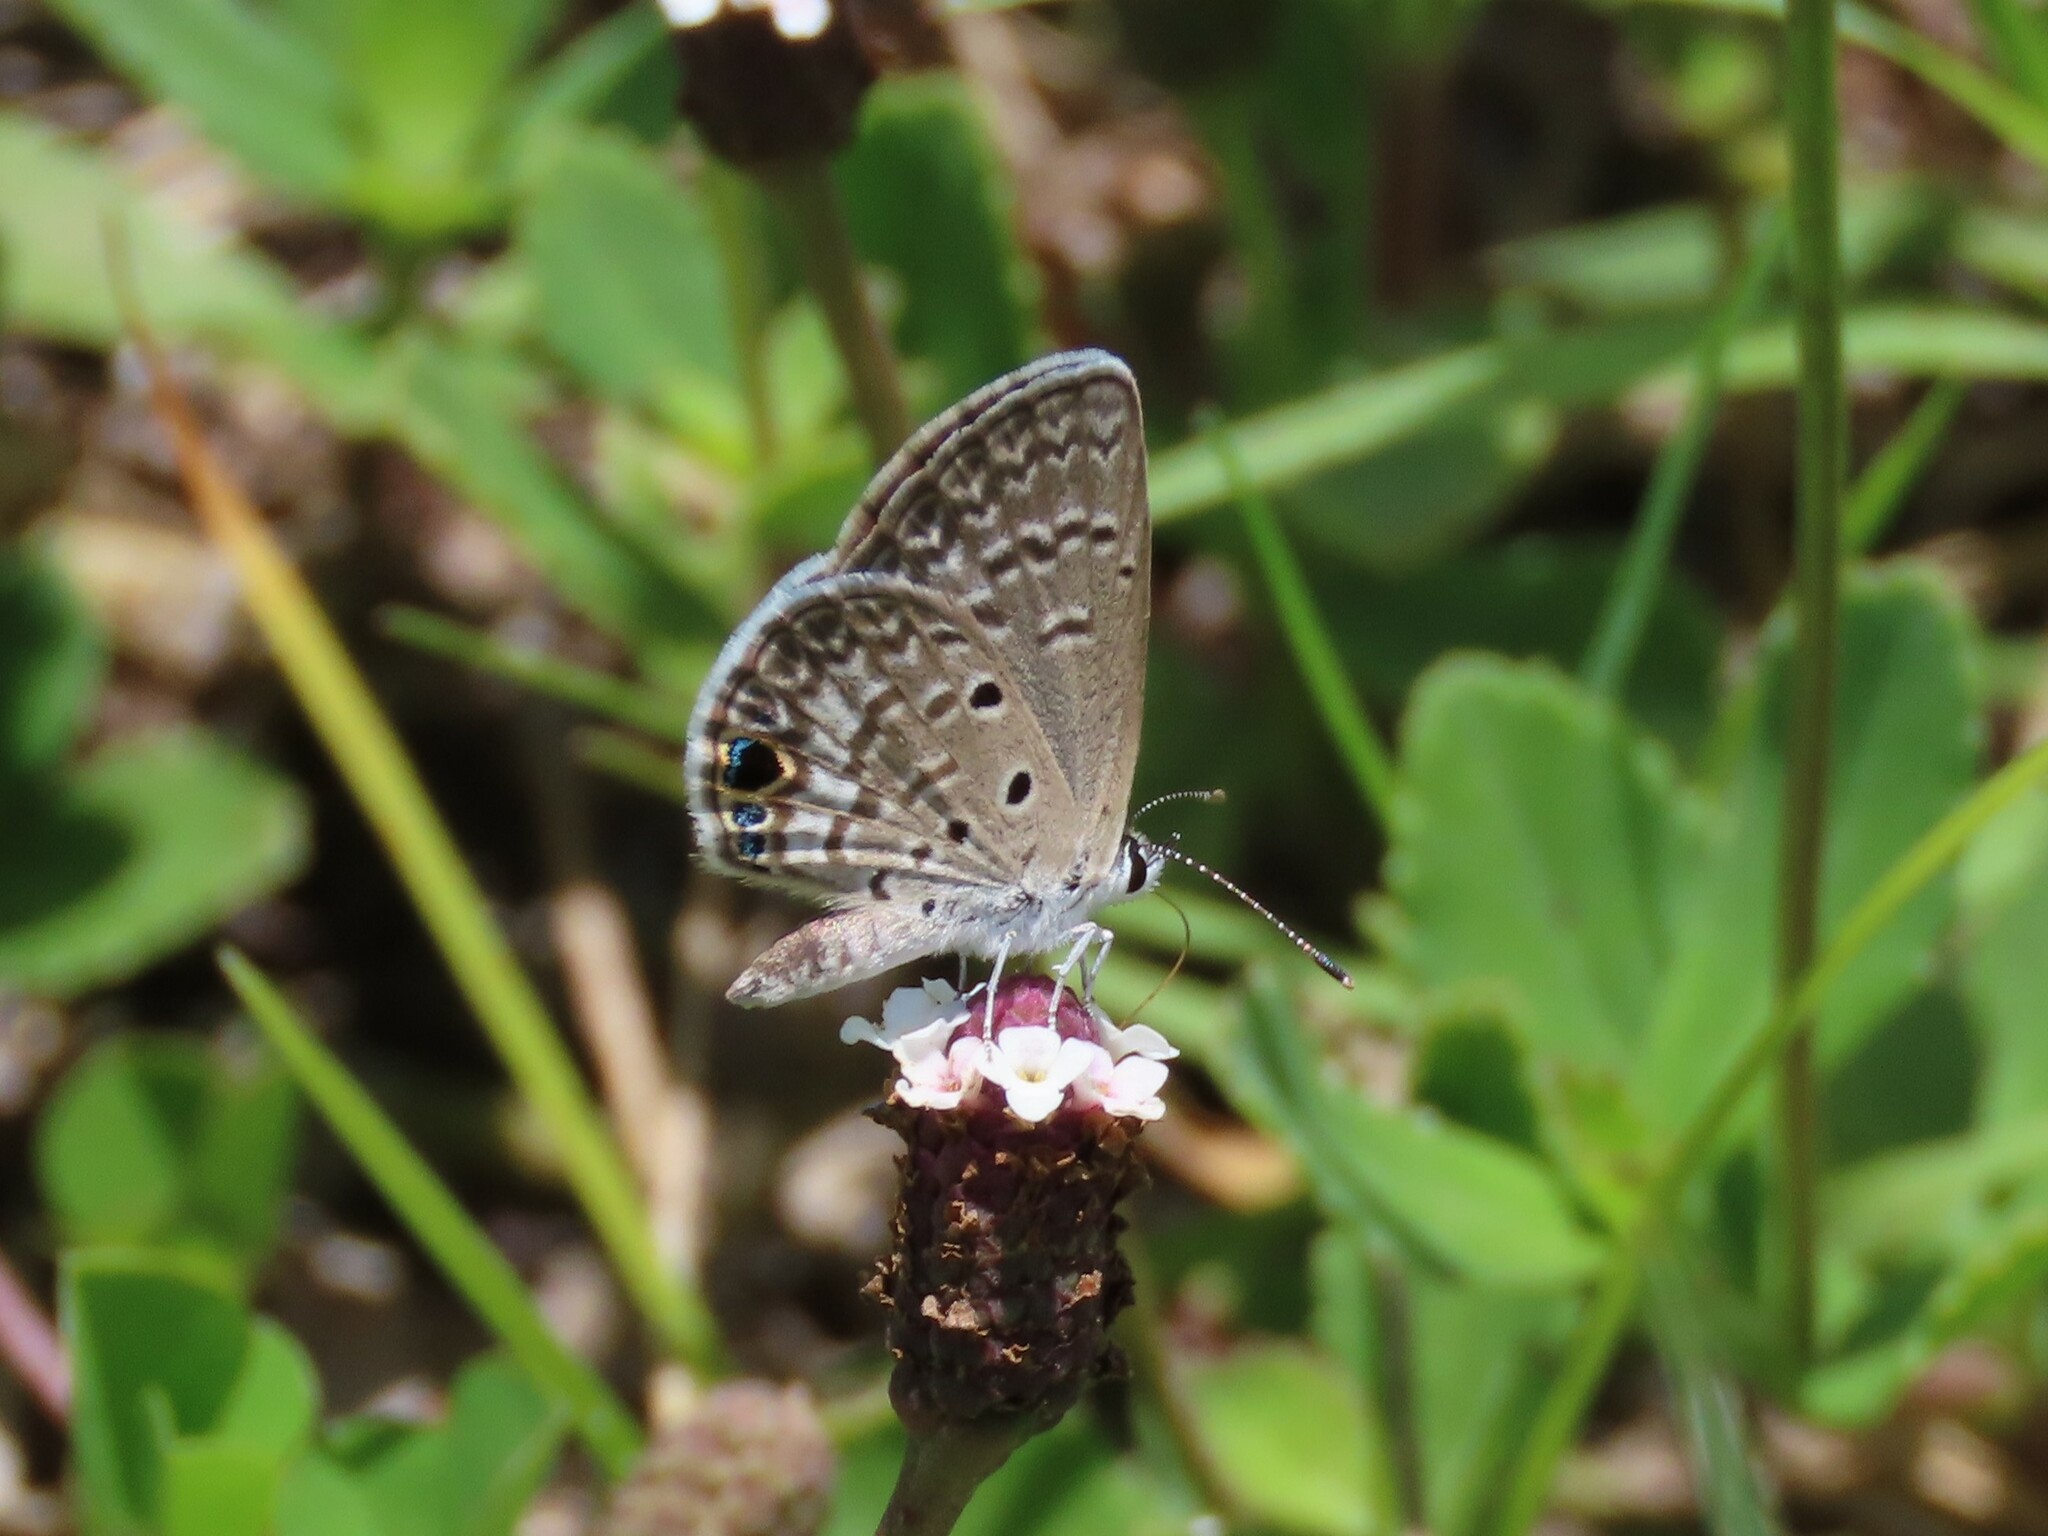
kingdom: Animalia
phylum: Arthropoda
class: Insecta
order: Lepidoptera
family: Lycaenidae
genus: Hemiargus
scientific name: Hemiargus ceraunus
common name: Ceraunus blue
